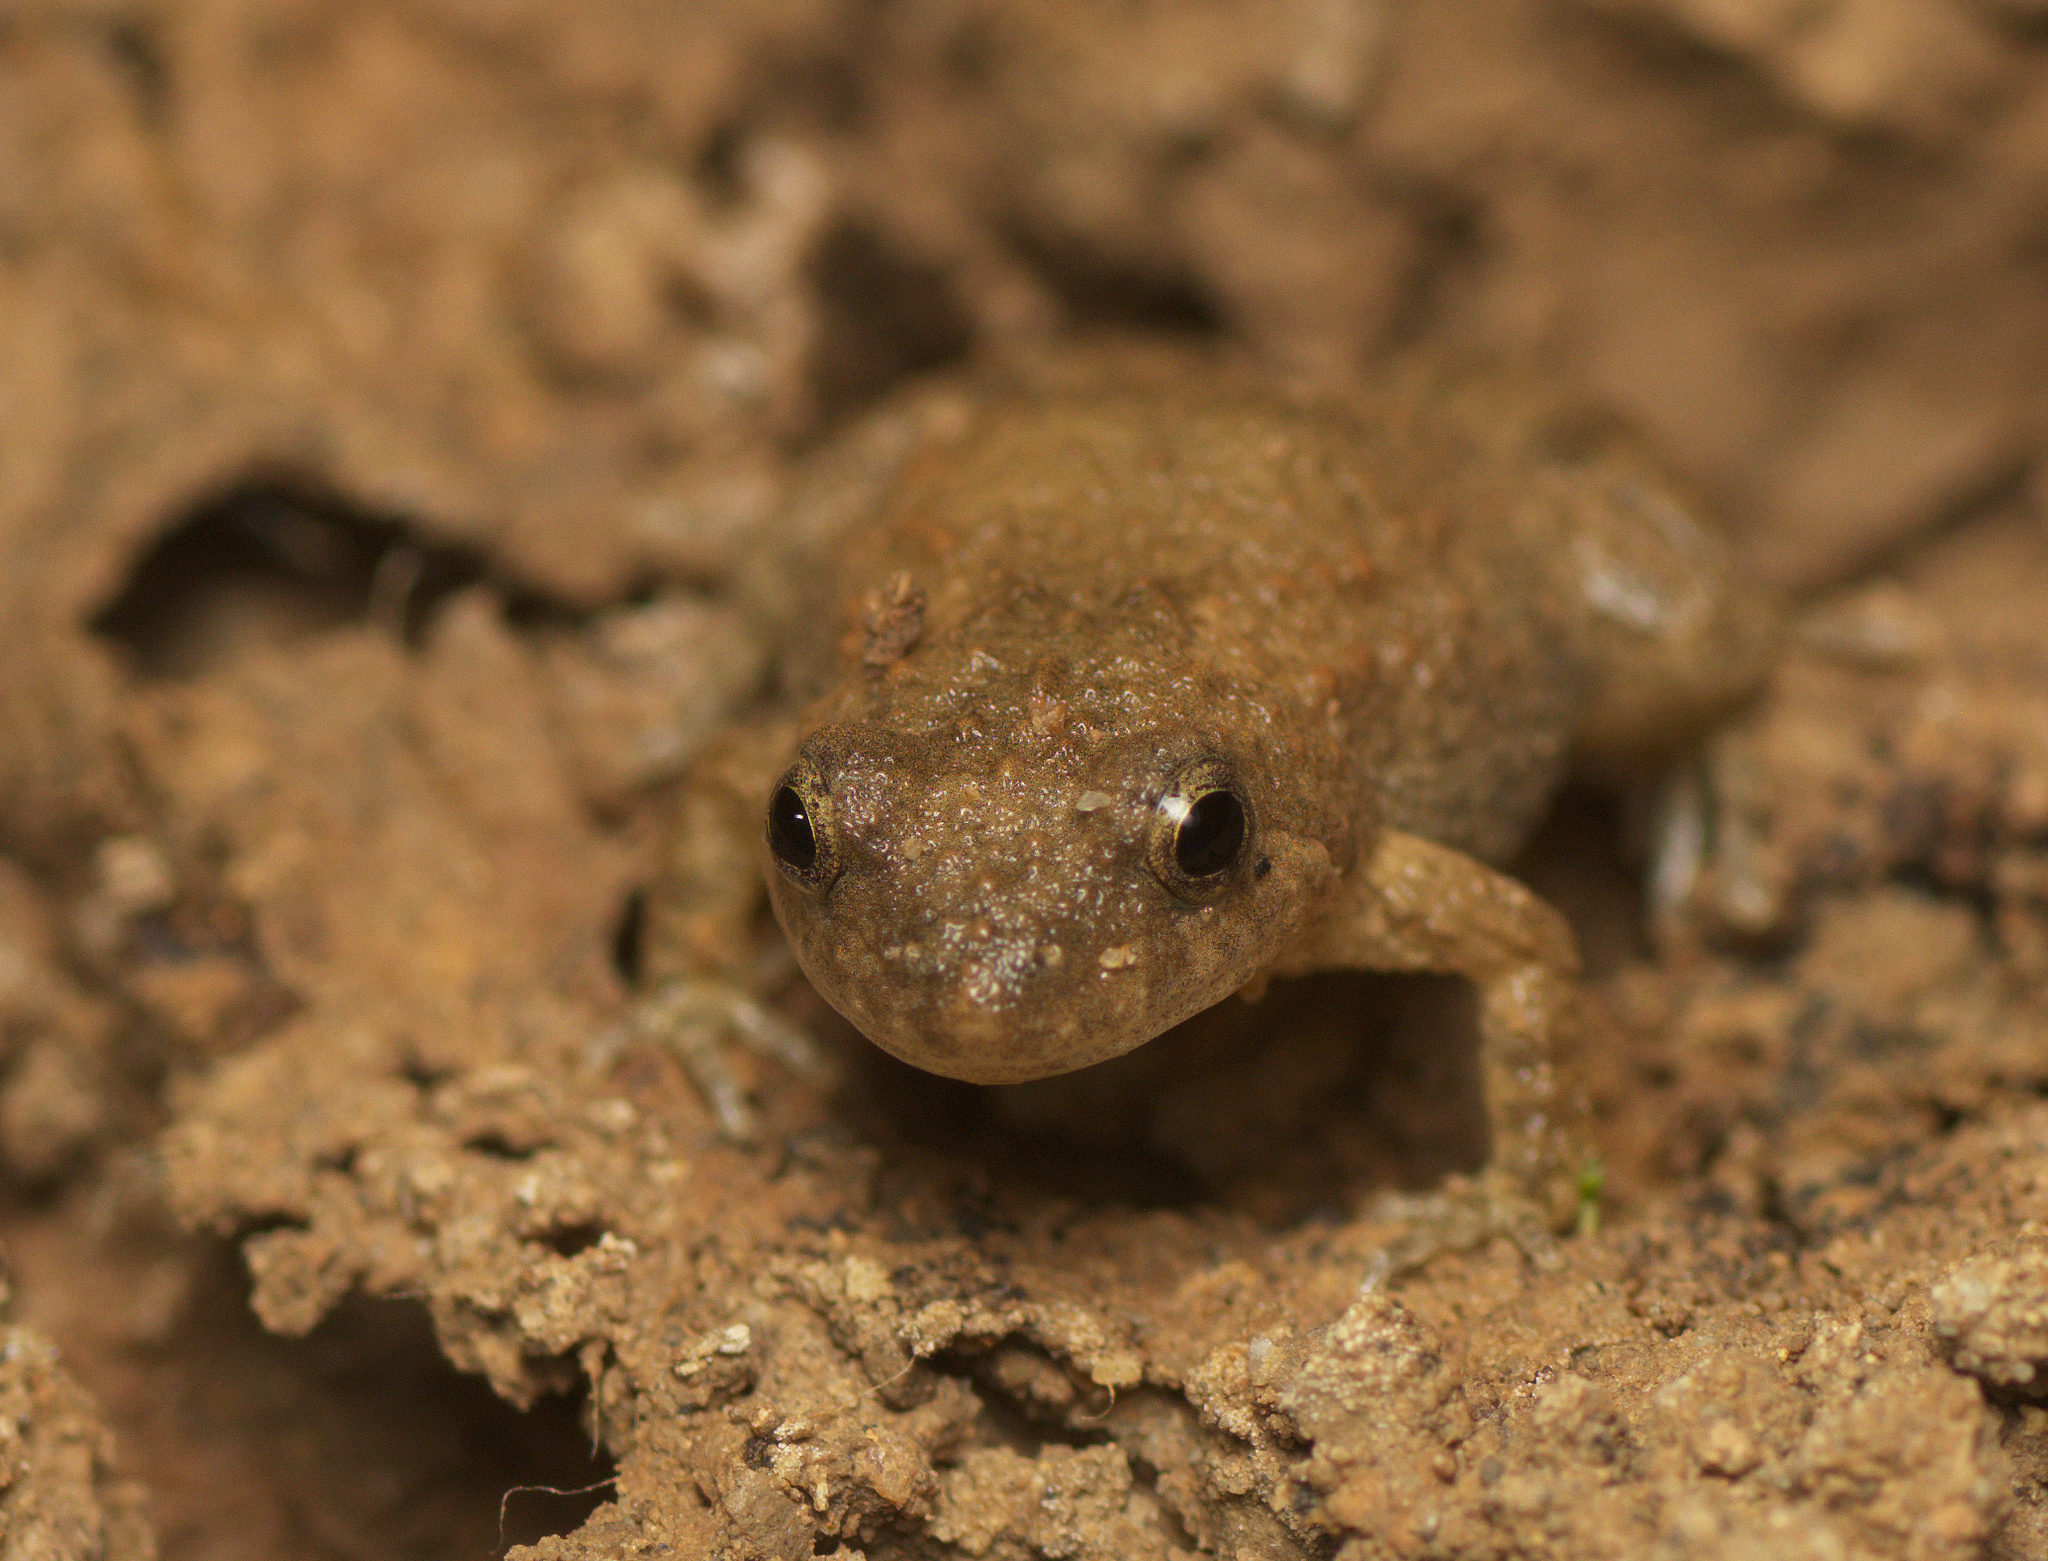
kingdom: Animalia
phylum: Chordata
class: Amphibia
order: Anura
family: Myobatrachidae
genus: Crinia
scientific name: Crinia deserticola
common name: Desert froglet
